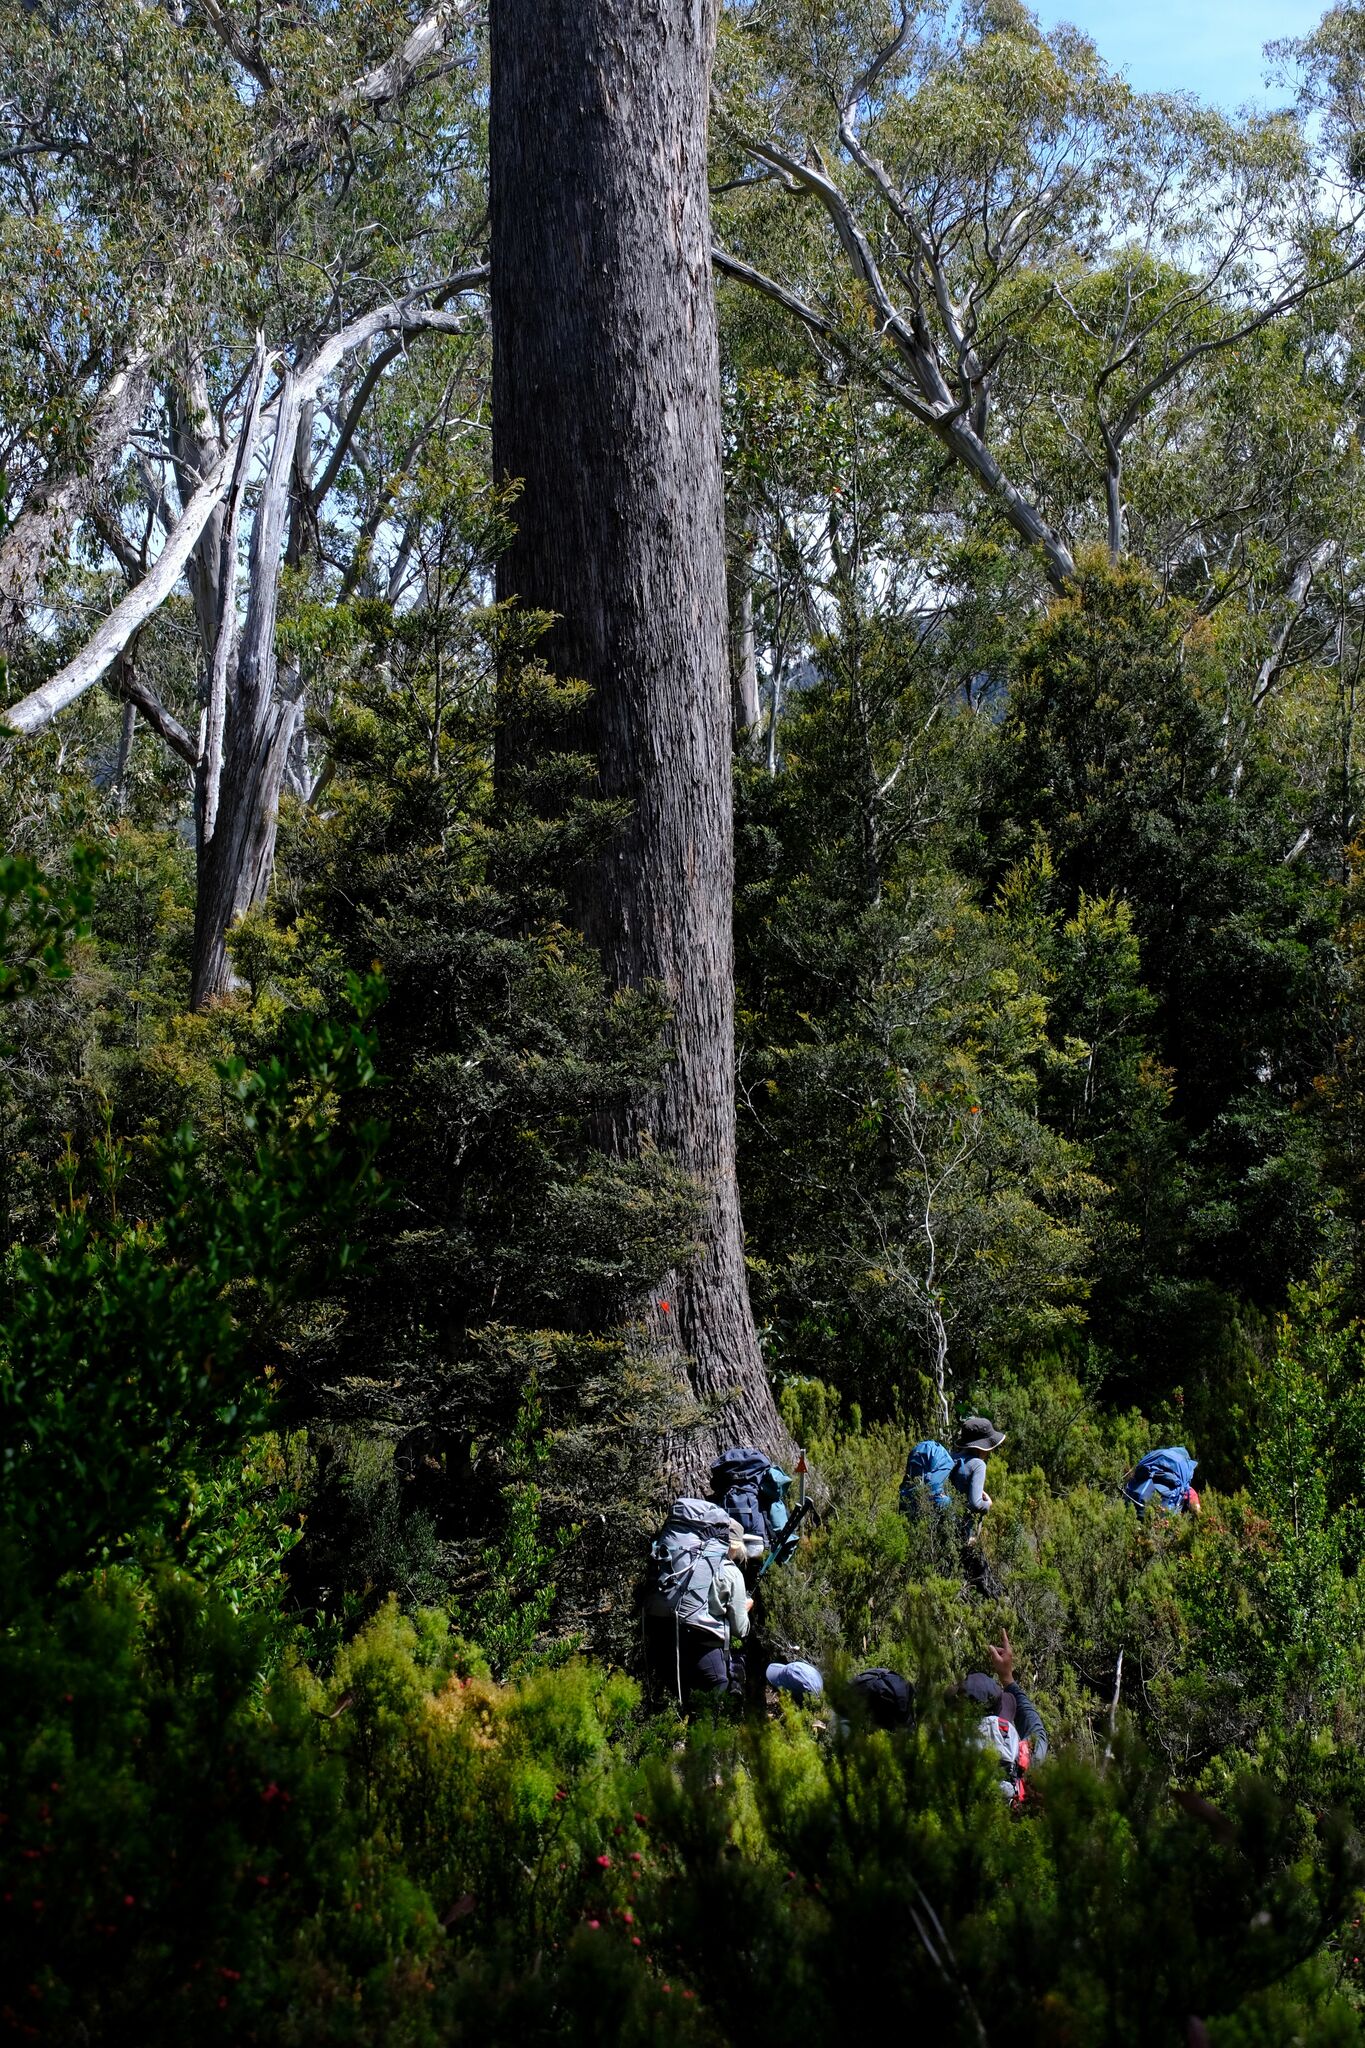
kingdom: Plantae
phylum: Tracheophyta
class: Magnoliopsida
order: Myrtales
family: Myrtaceae
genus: Eucalyptus
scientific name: Eucalyptus
